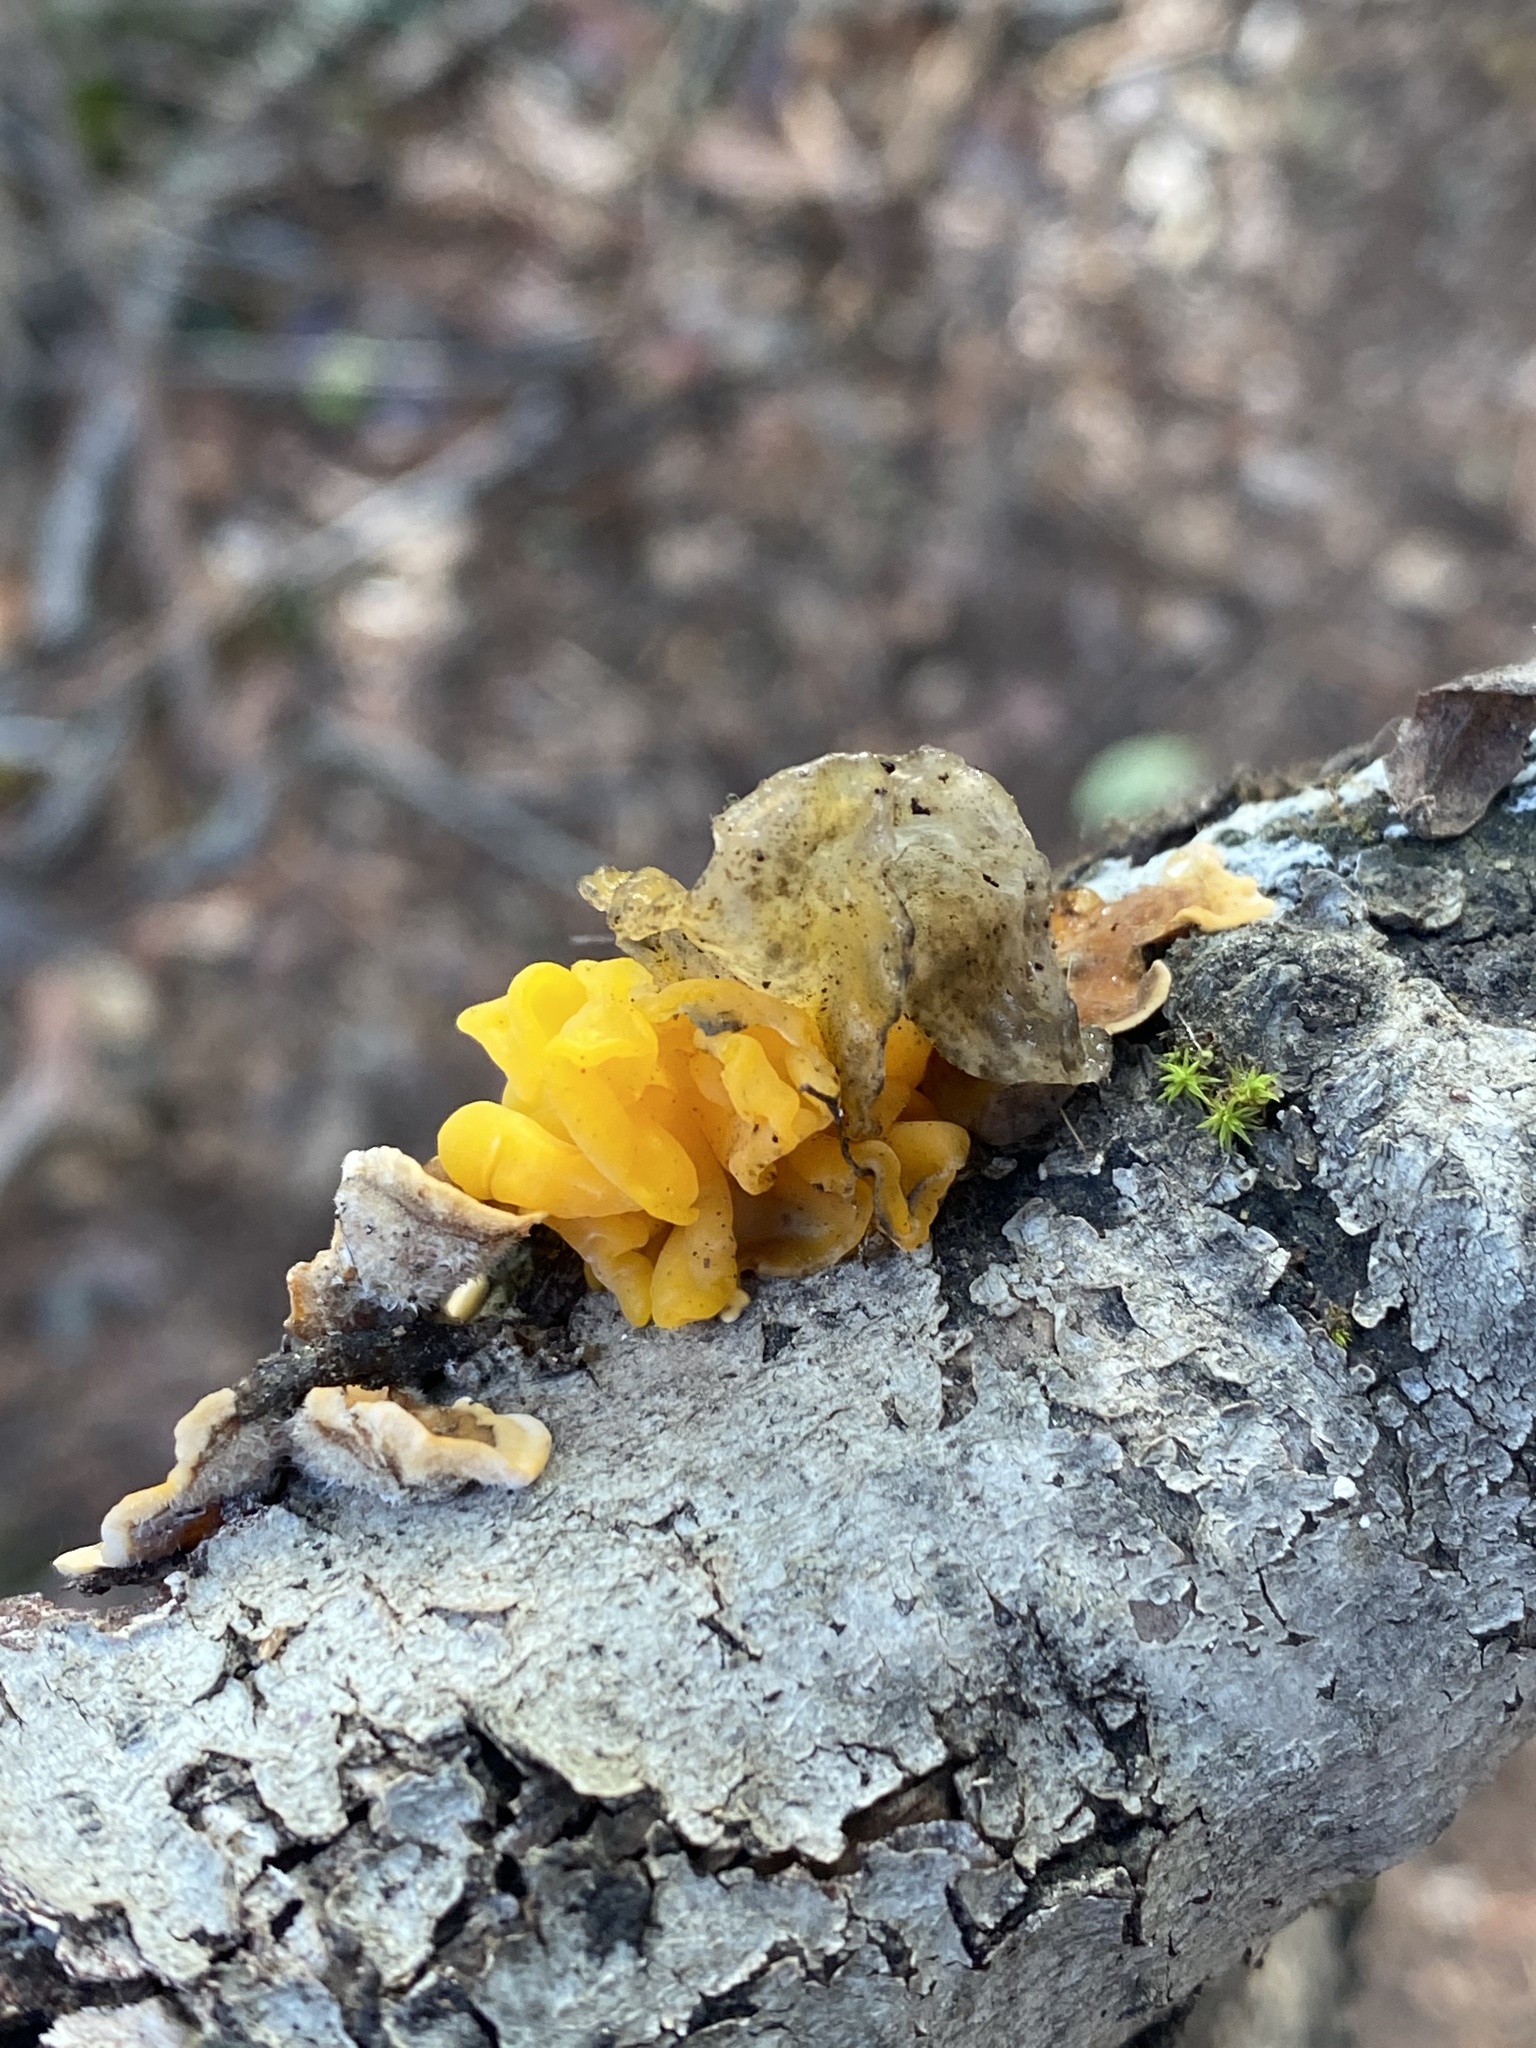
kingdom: Fungi
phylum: Basidiomycota
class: Tremellomycetes
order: Tremellales
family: Naemateliaceae
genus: Naematelia
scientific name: Naematelia aurantia
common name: Golden ear
